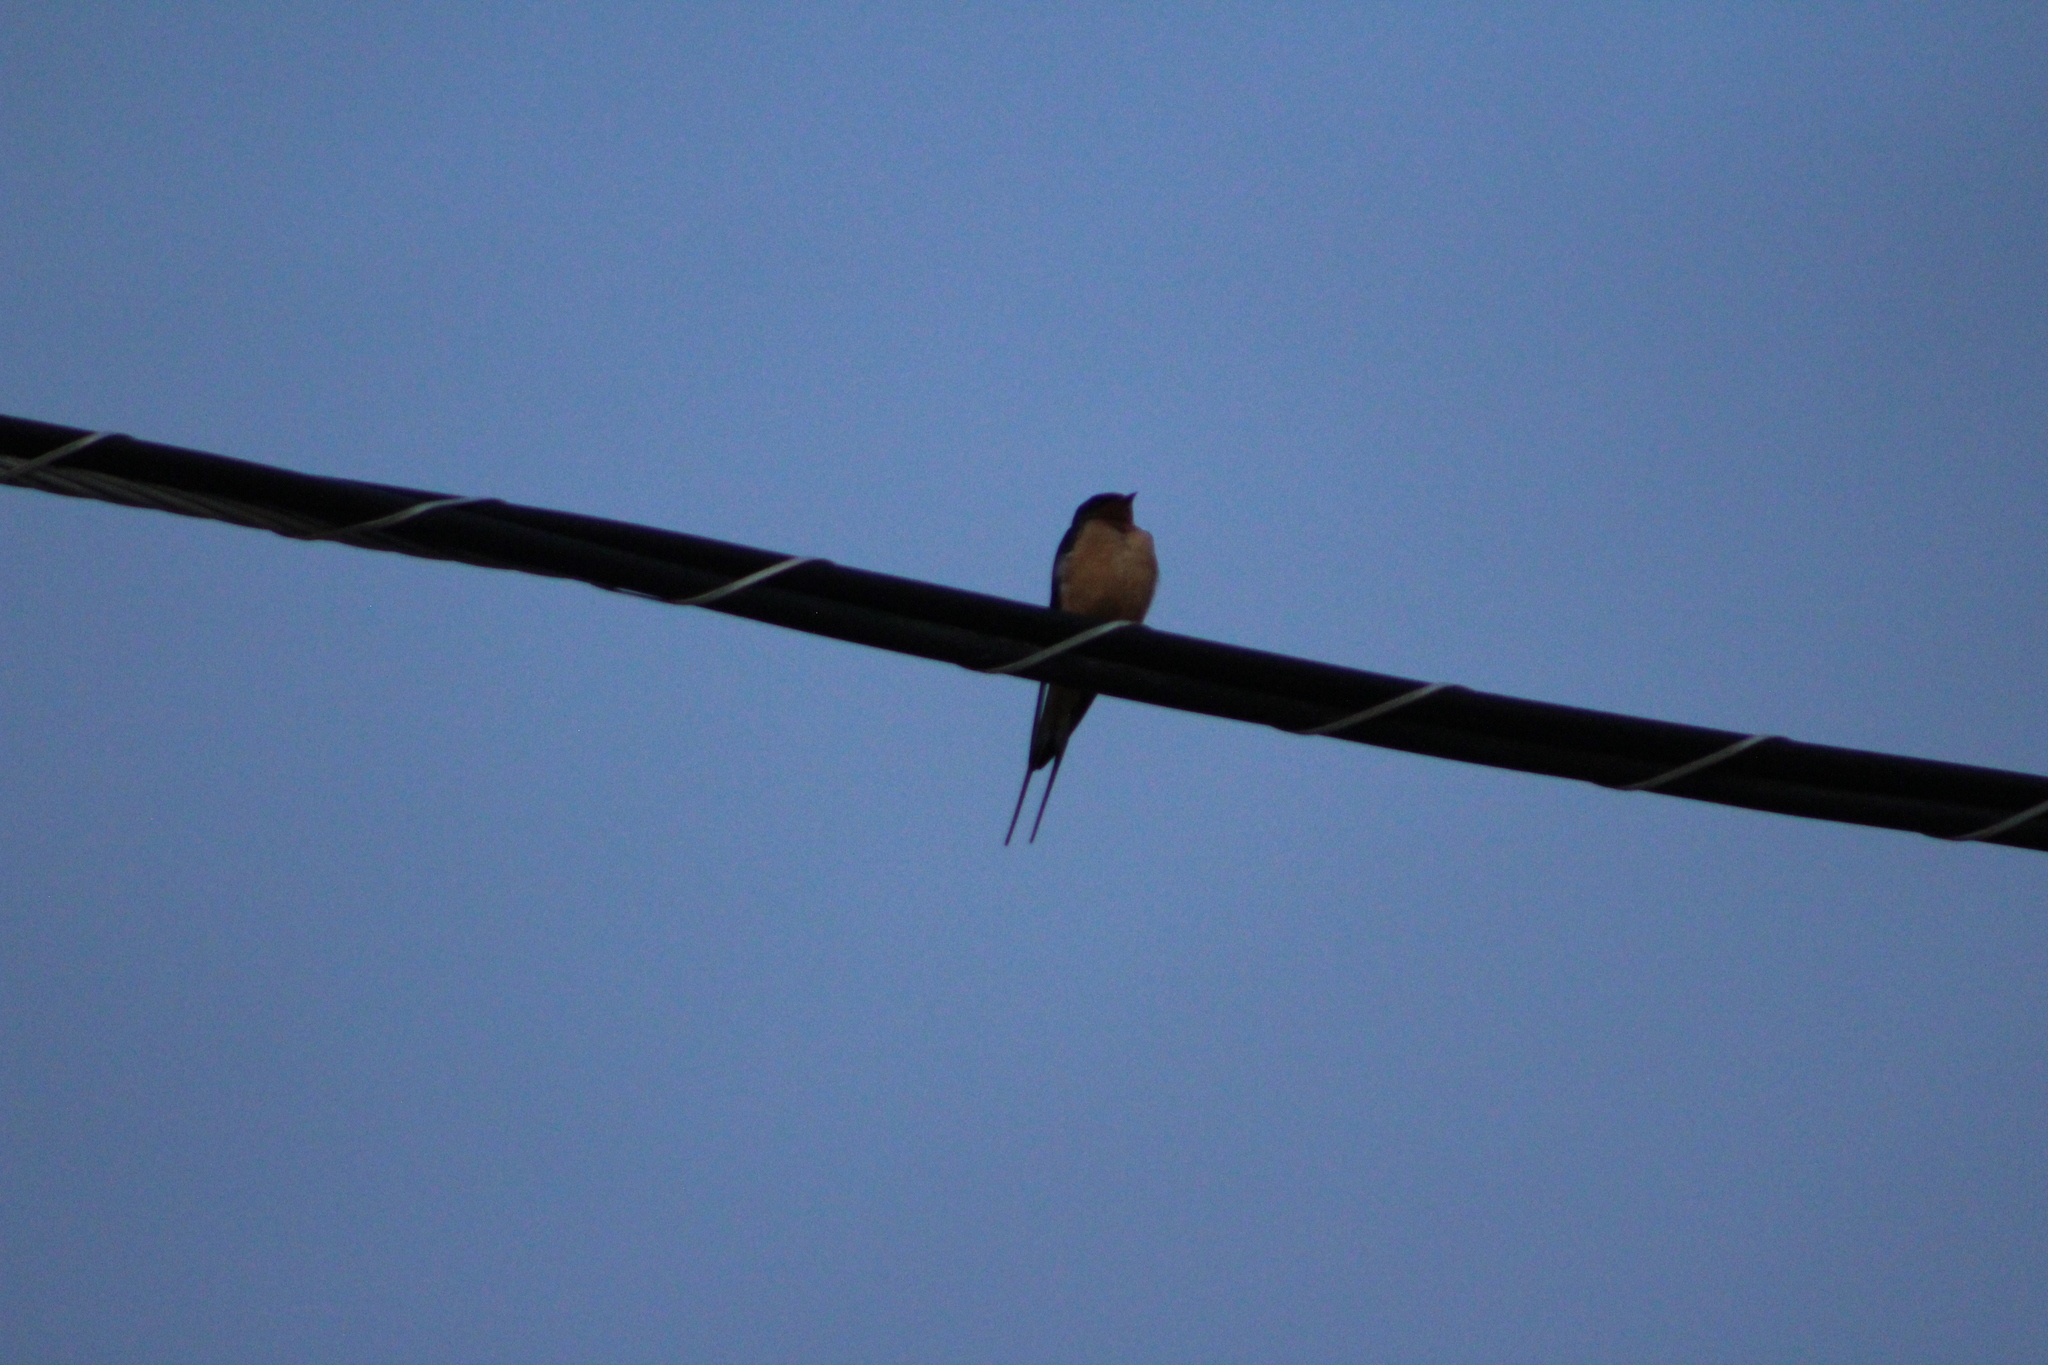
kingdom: Animalia
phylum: Chordata
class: Aves
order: Passeriformes
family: Hirundinidae
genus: Hirundo
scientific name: Hirundo rustica
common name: Barn swallow
